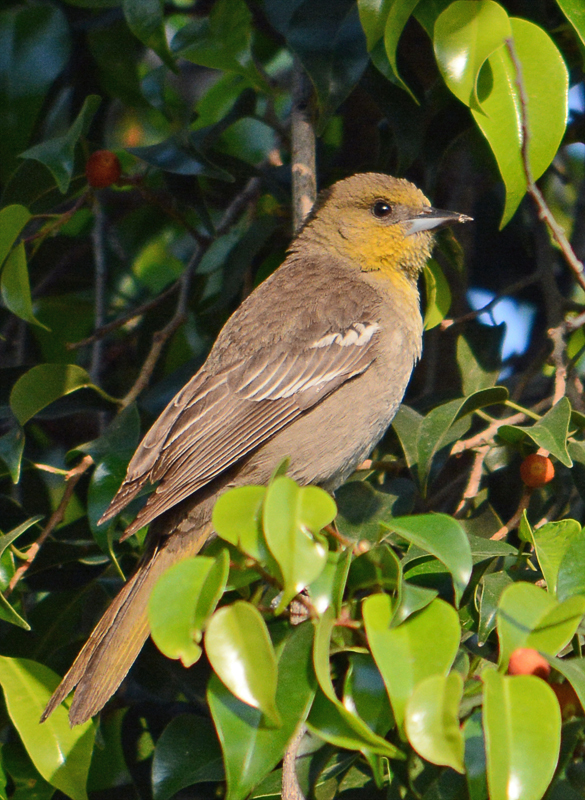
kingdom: Animalia
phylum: Chordata
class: Aves
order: Passeriformes
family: Icteridae
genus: Icterus
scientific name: Icterus abeillei
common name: Black-backed oriole
